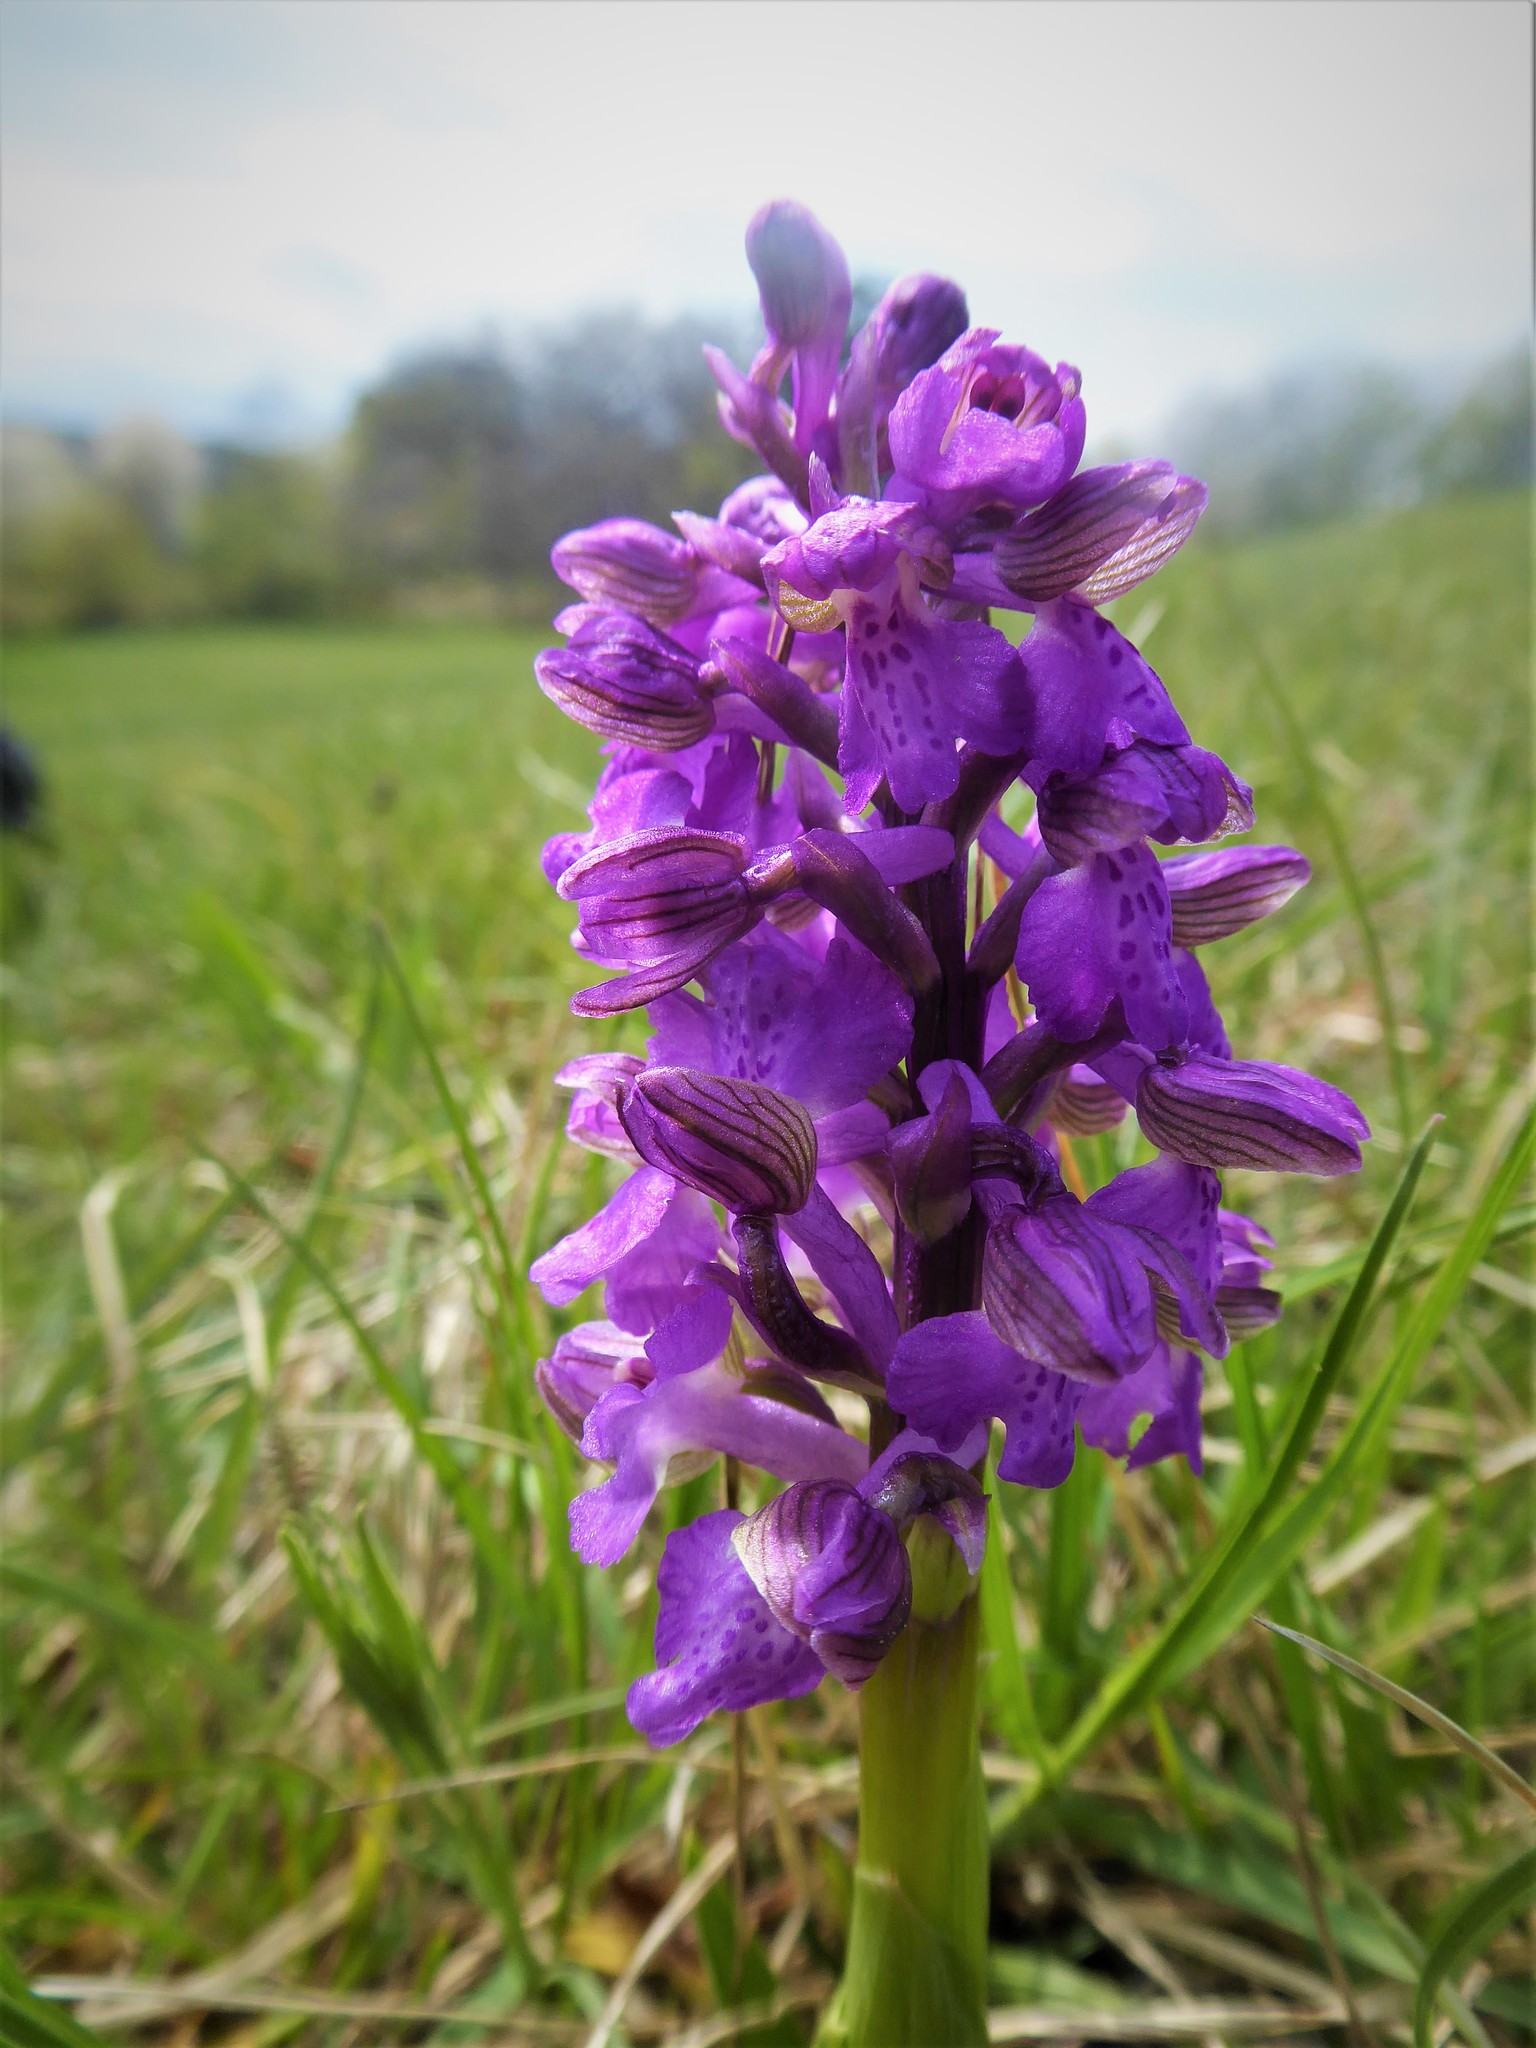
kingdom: Plantae
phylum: Tracheophyta
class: Liliopsida
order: Asparagales
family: Orchidaceae
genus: Anacamptis
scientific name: Anacamptis morio
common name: Green-winged orchid
